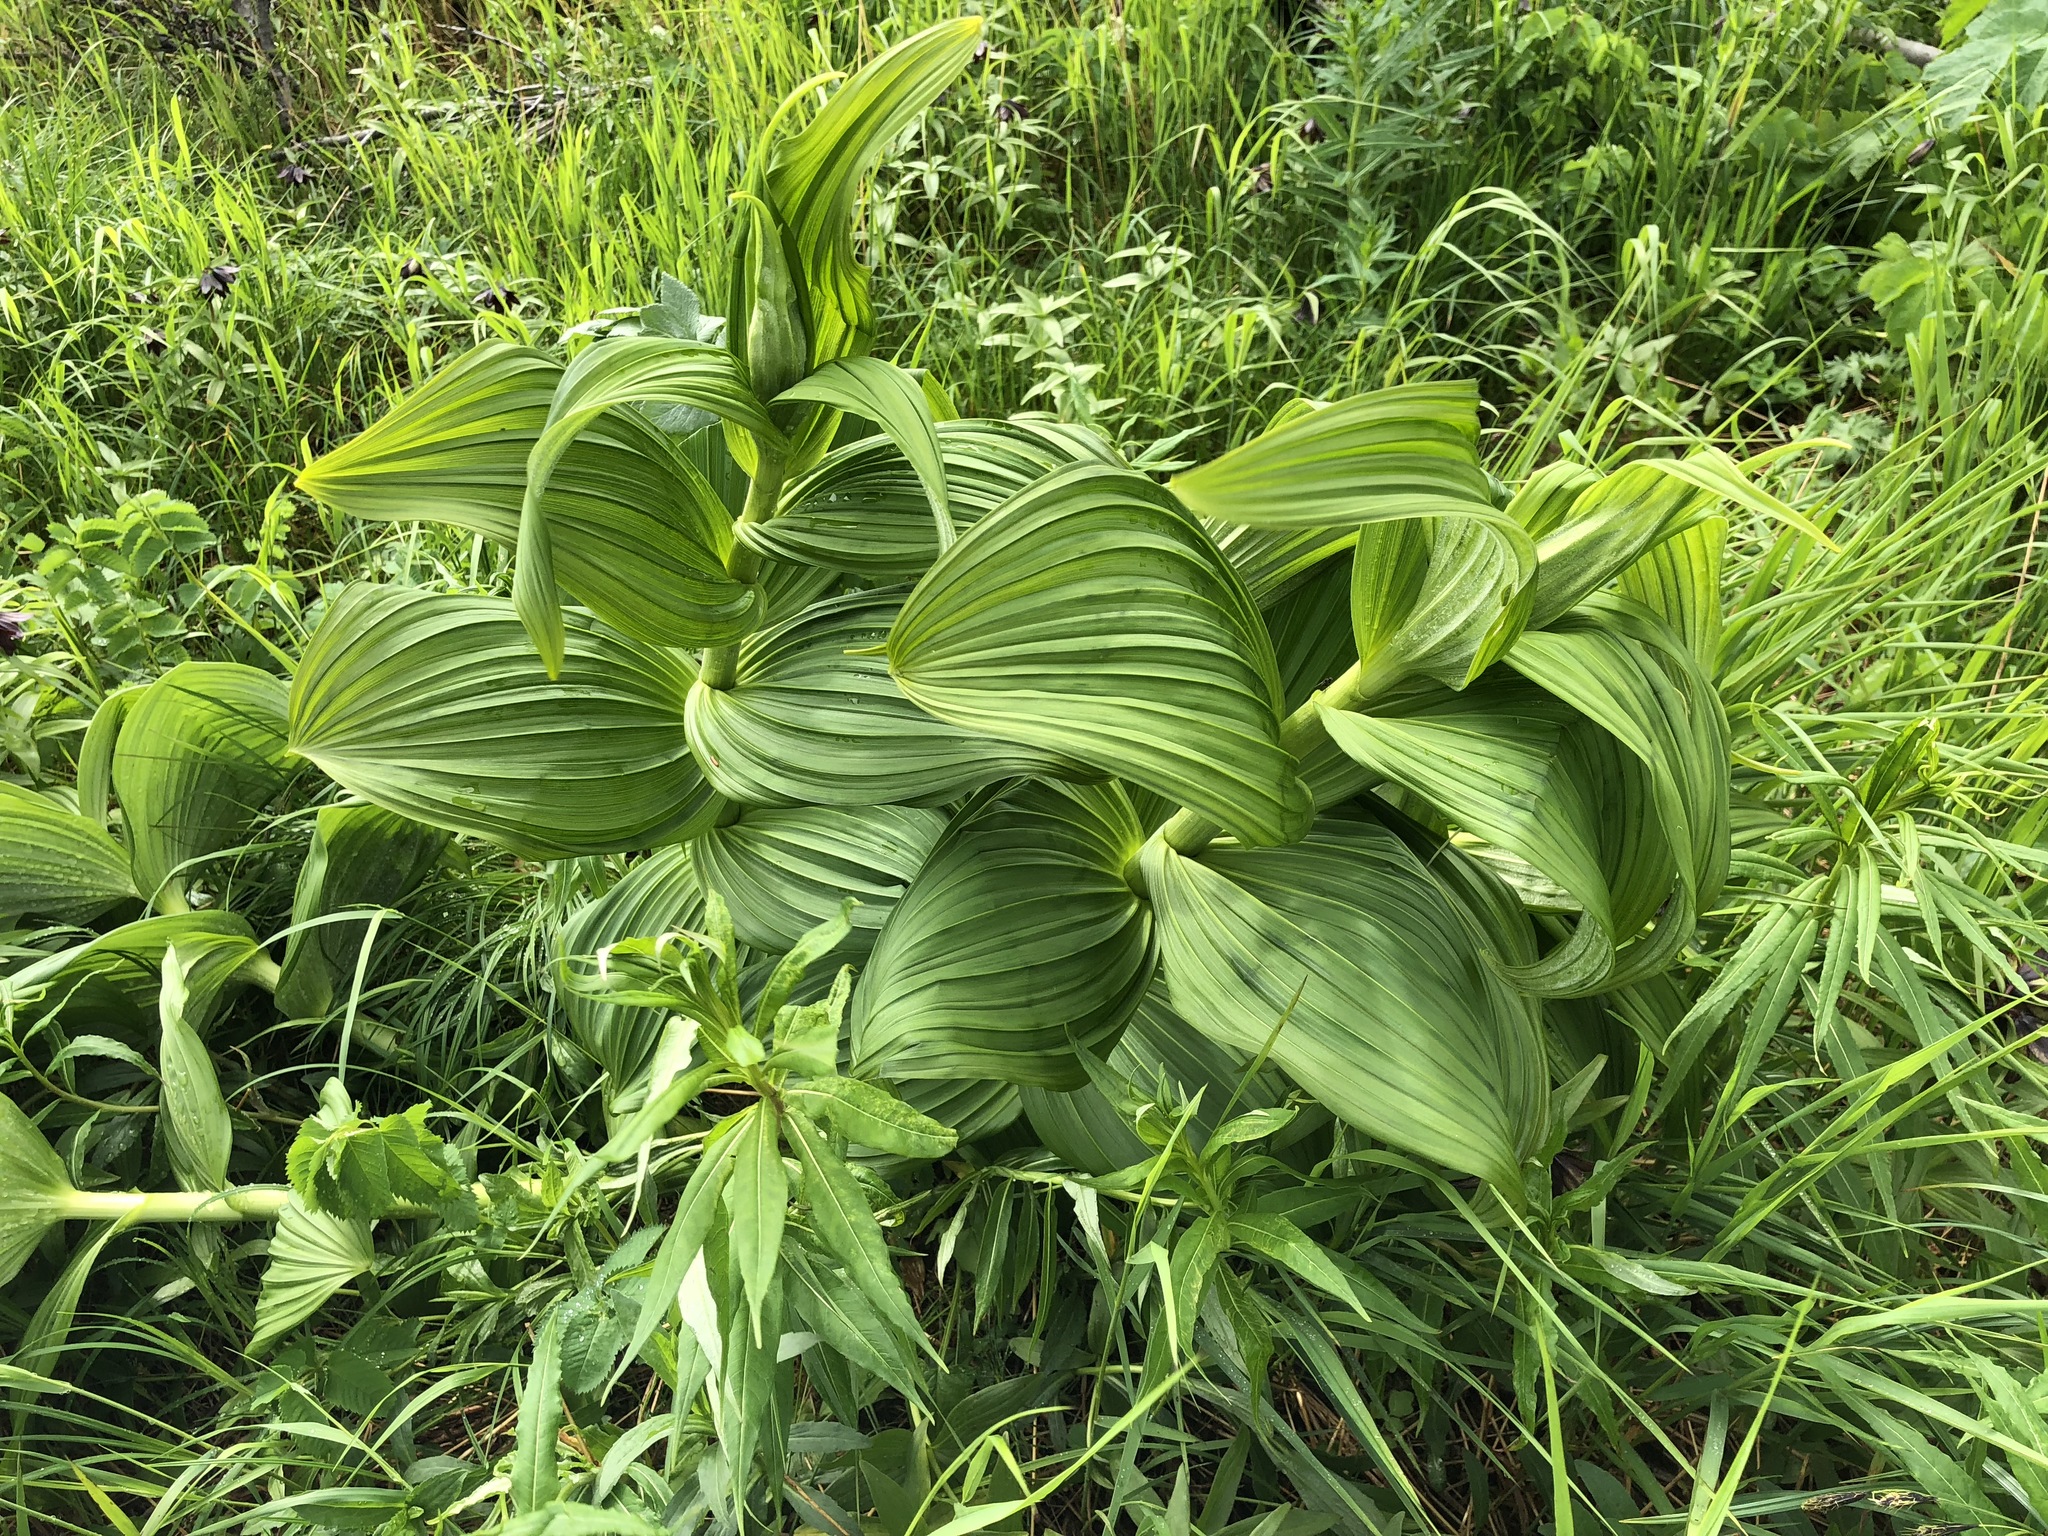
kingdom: Plantae
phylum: Tracheophyta
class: Liliopsida
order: Liliales
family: Melanthiaceae
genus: Veratrum
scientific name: Veratrum viride
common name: American false hellebore
